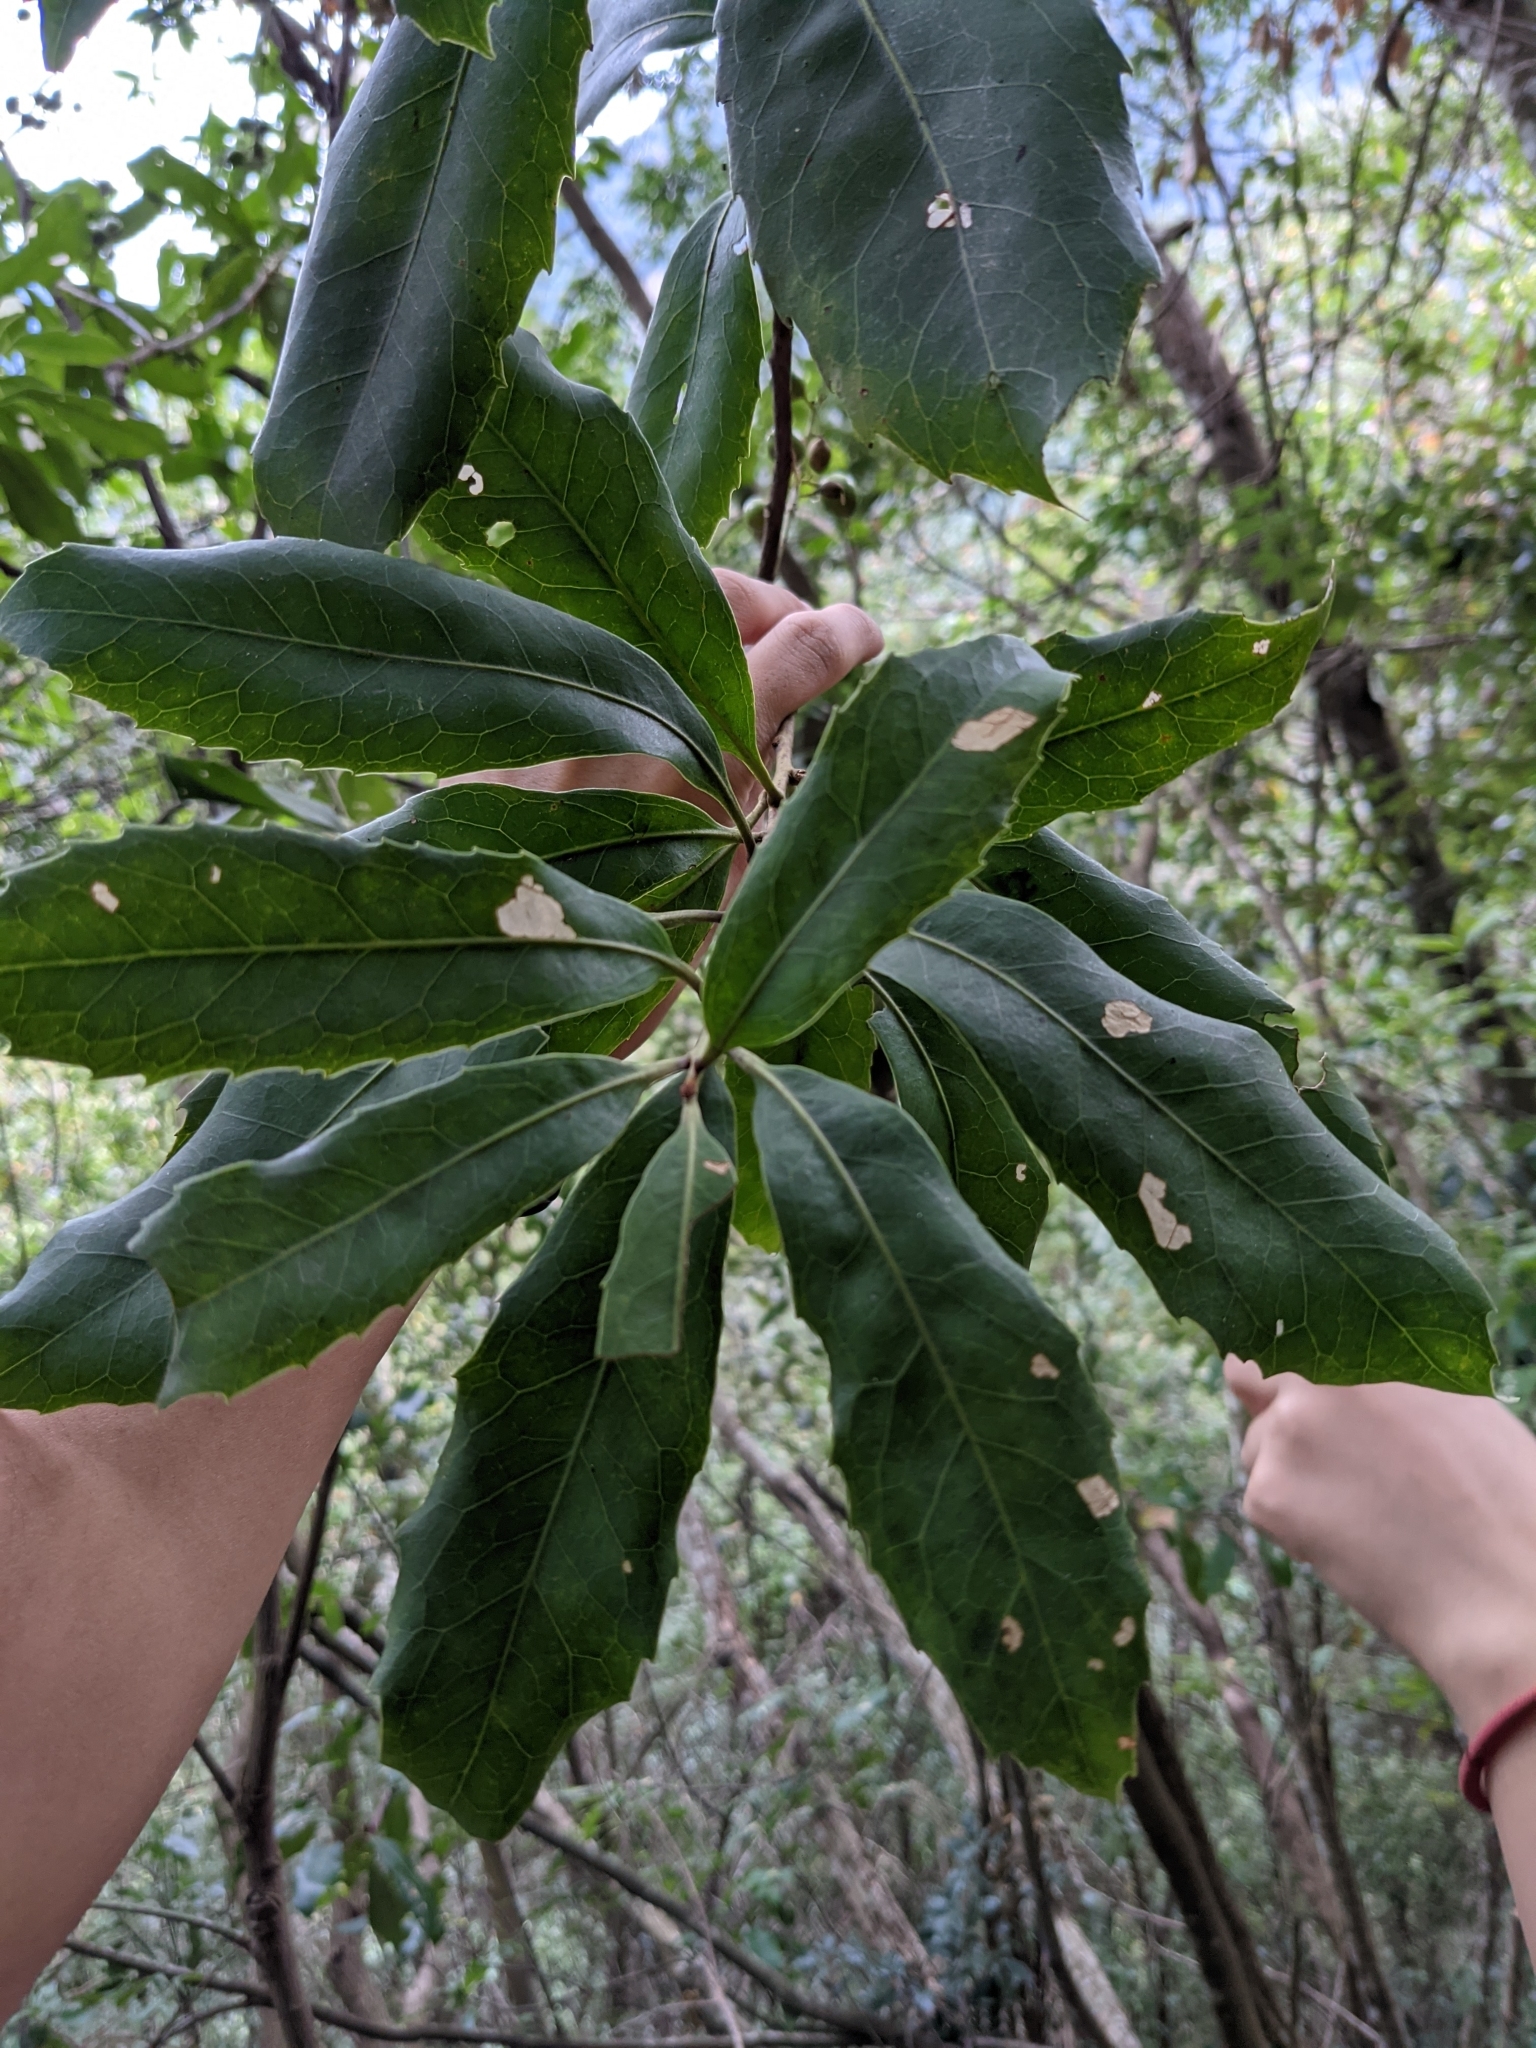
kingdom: Plantae
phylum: Tracheophyta
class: Magnoliopsida
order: Proteales
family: Proteaceae
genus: Helicia
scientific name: Helicia rengetiensis
